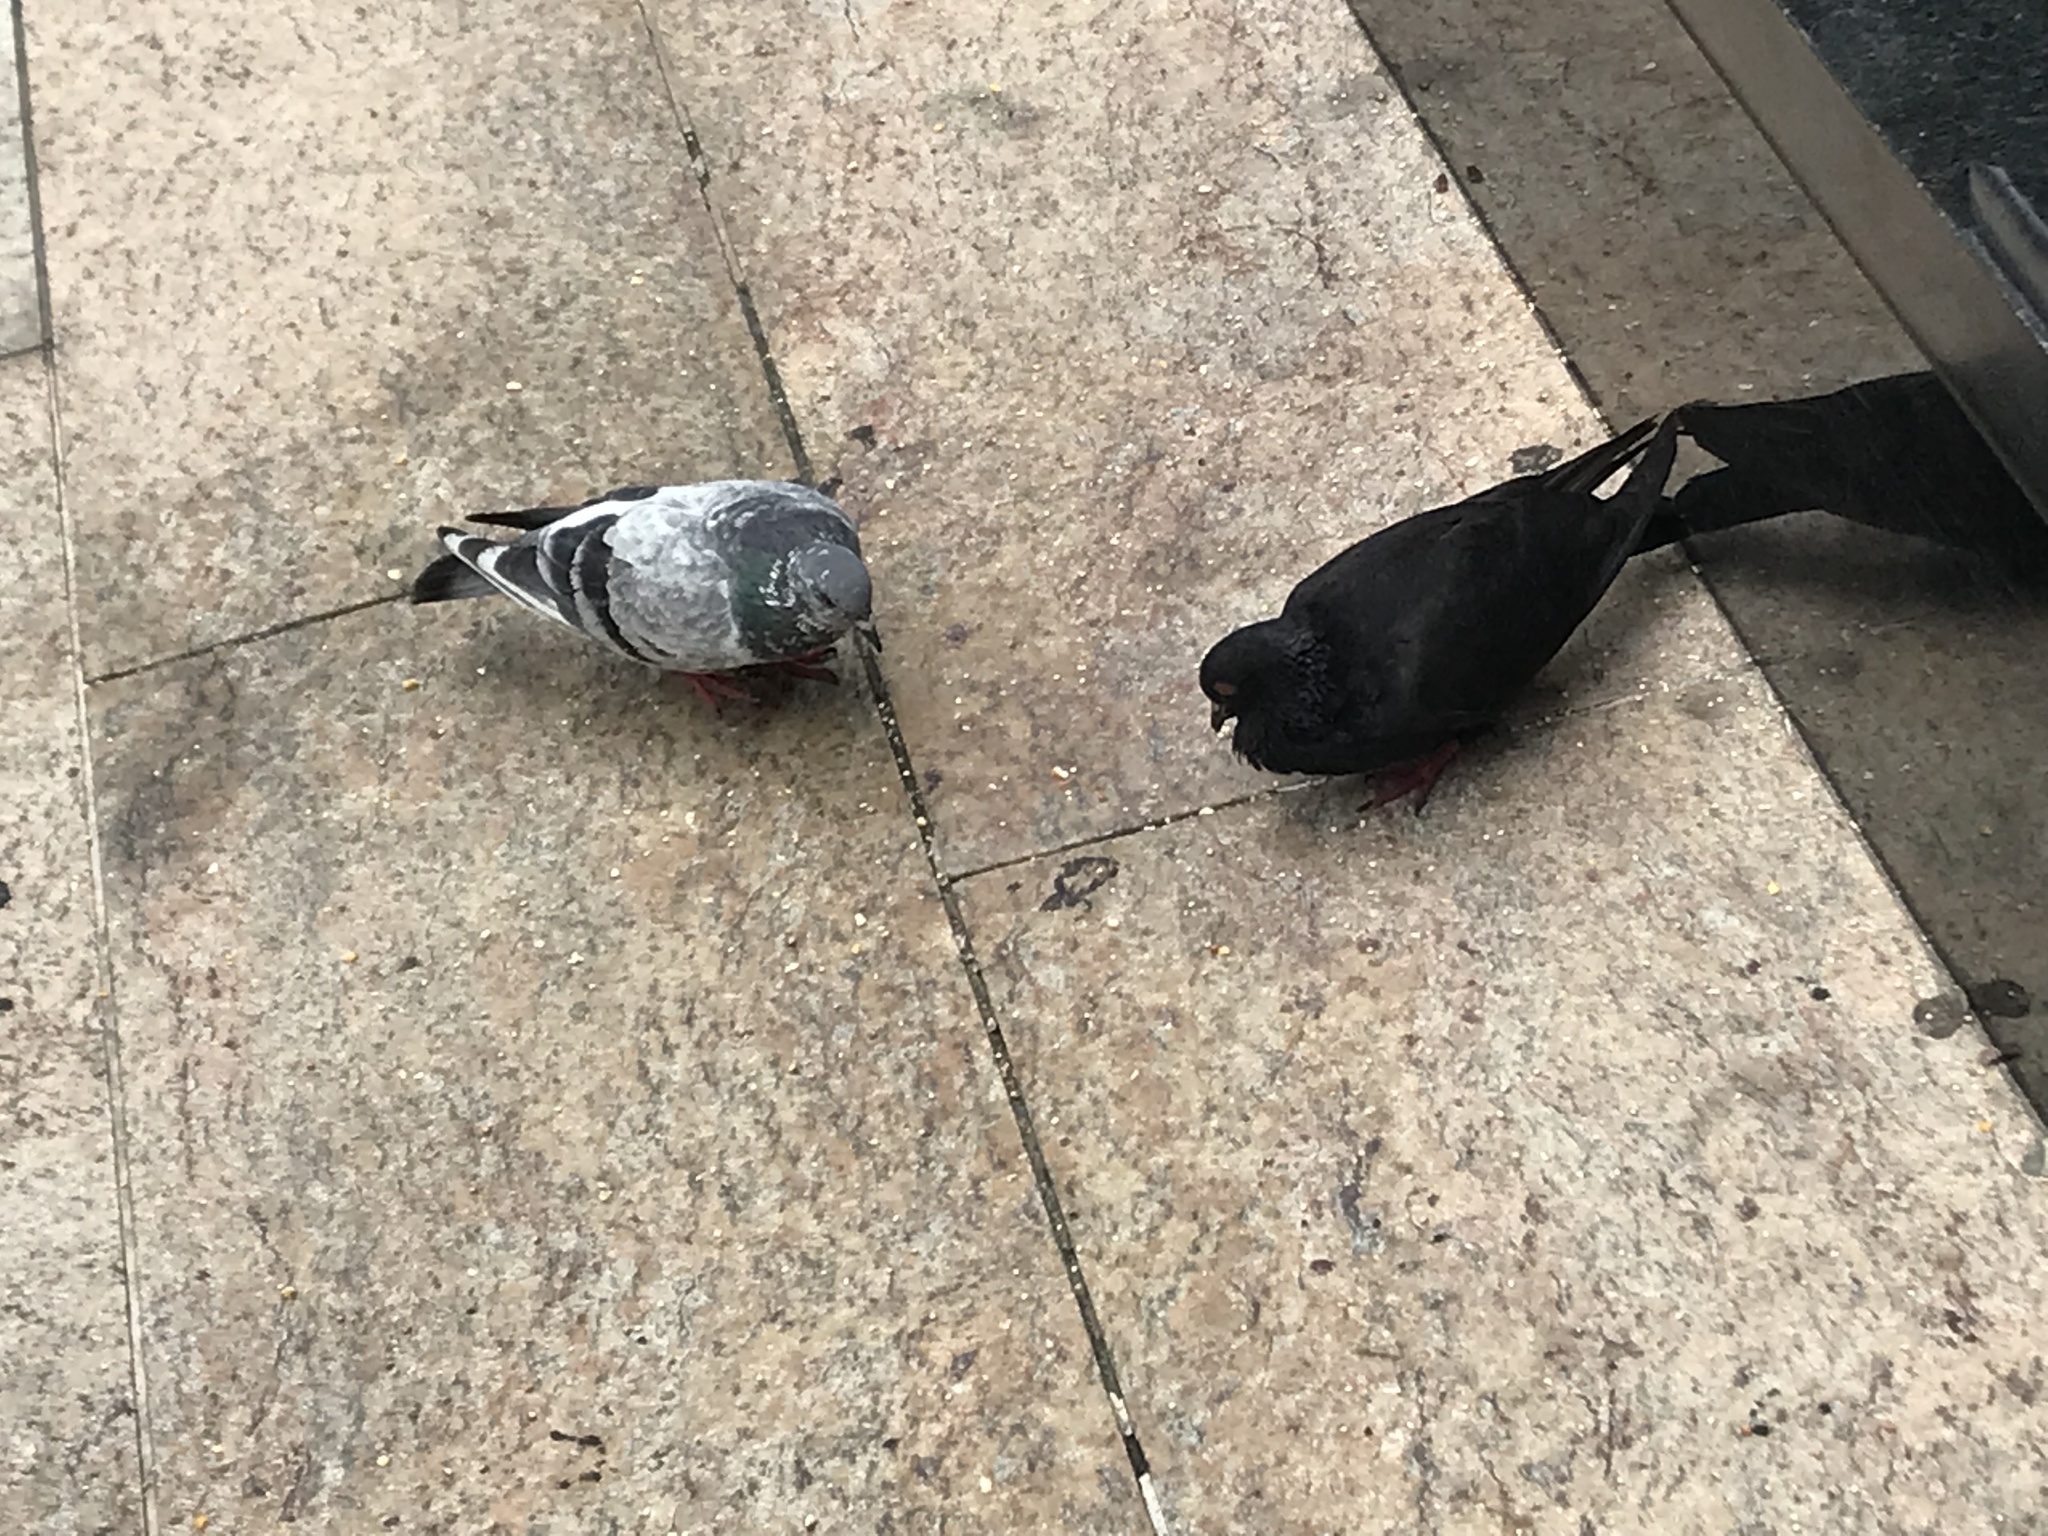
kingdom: Animalia
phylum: Chordata
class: Aves
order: Columbiformes
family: Columbidae
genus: Columba
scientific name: Columba livia
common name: Rock pigeon
